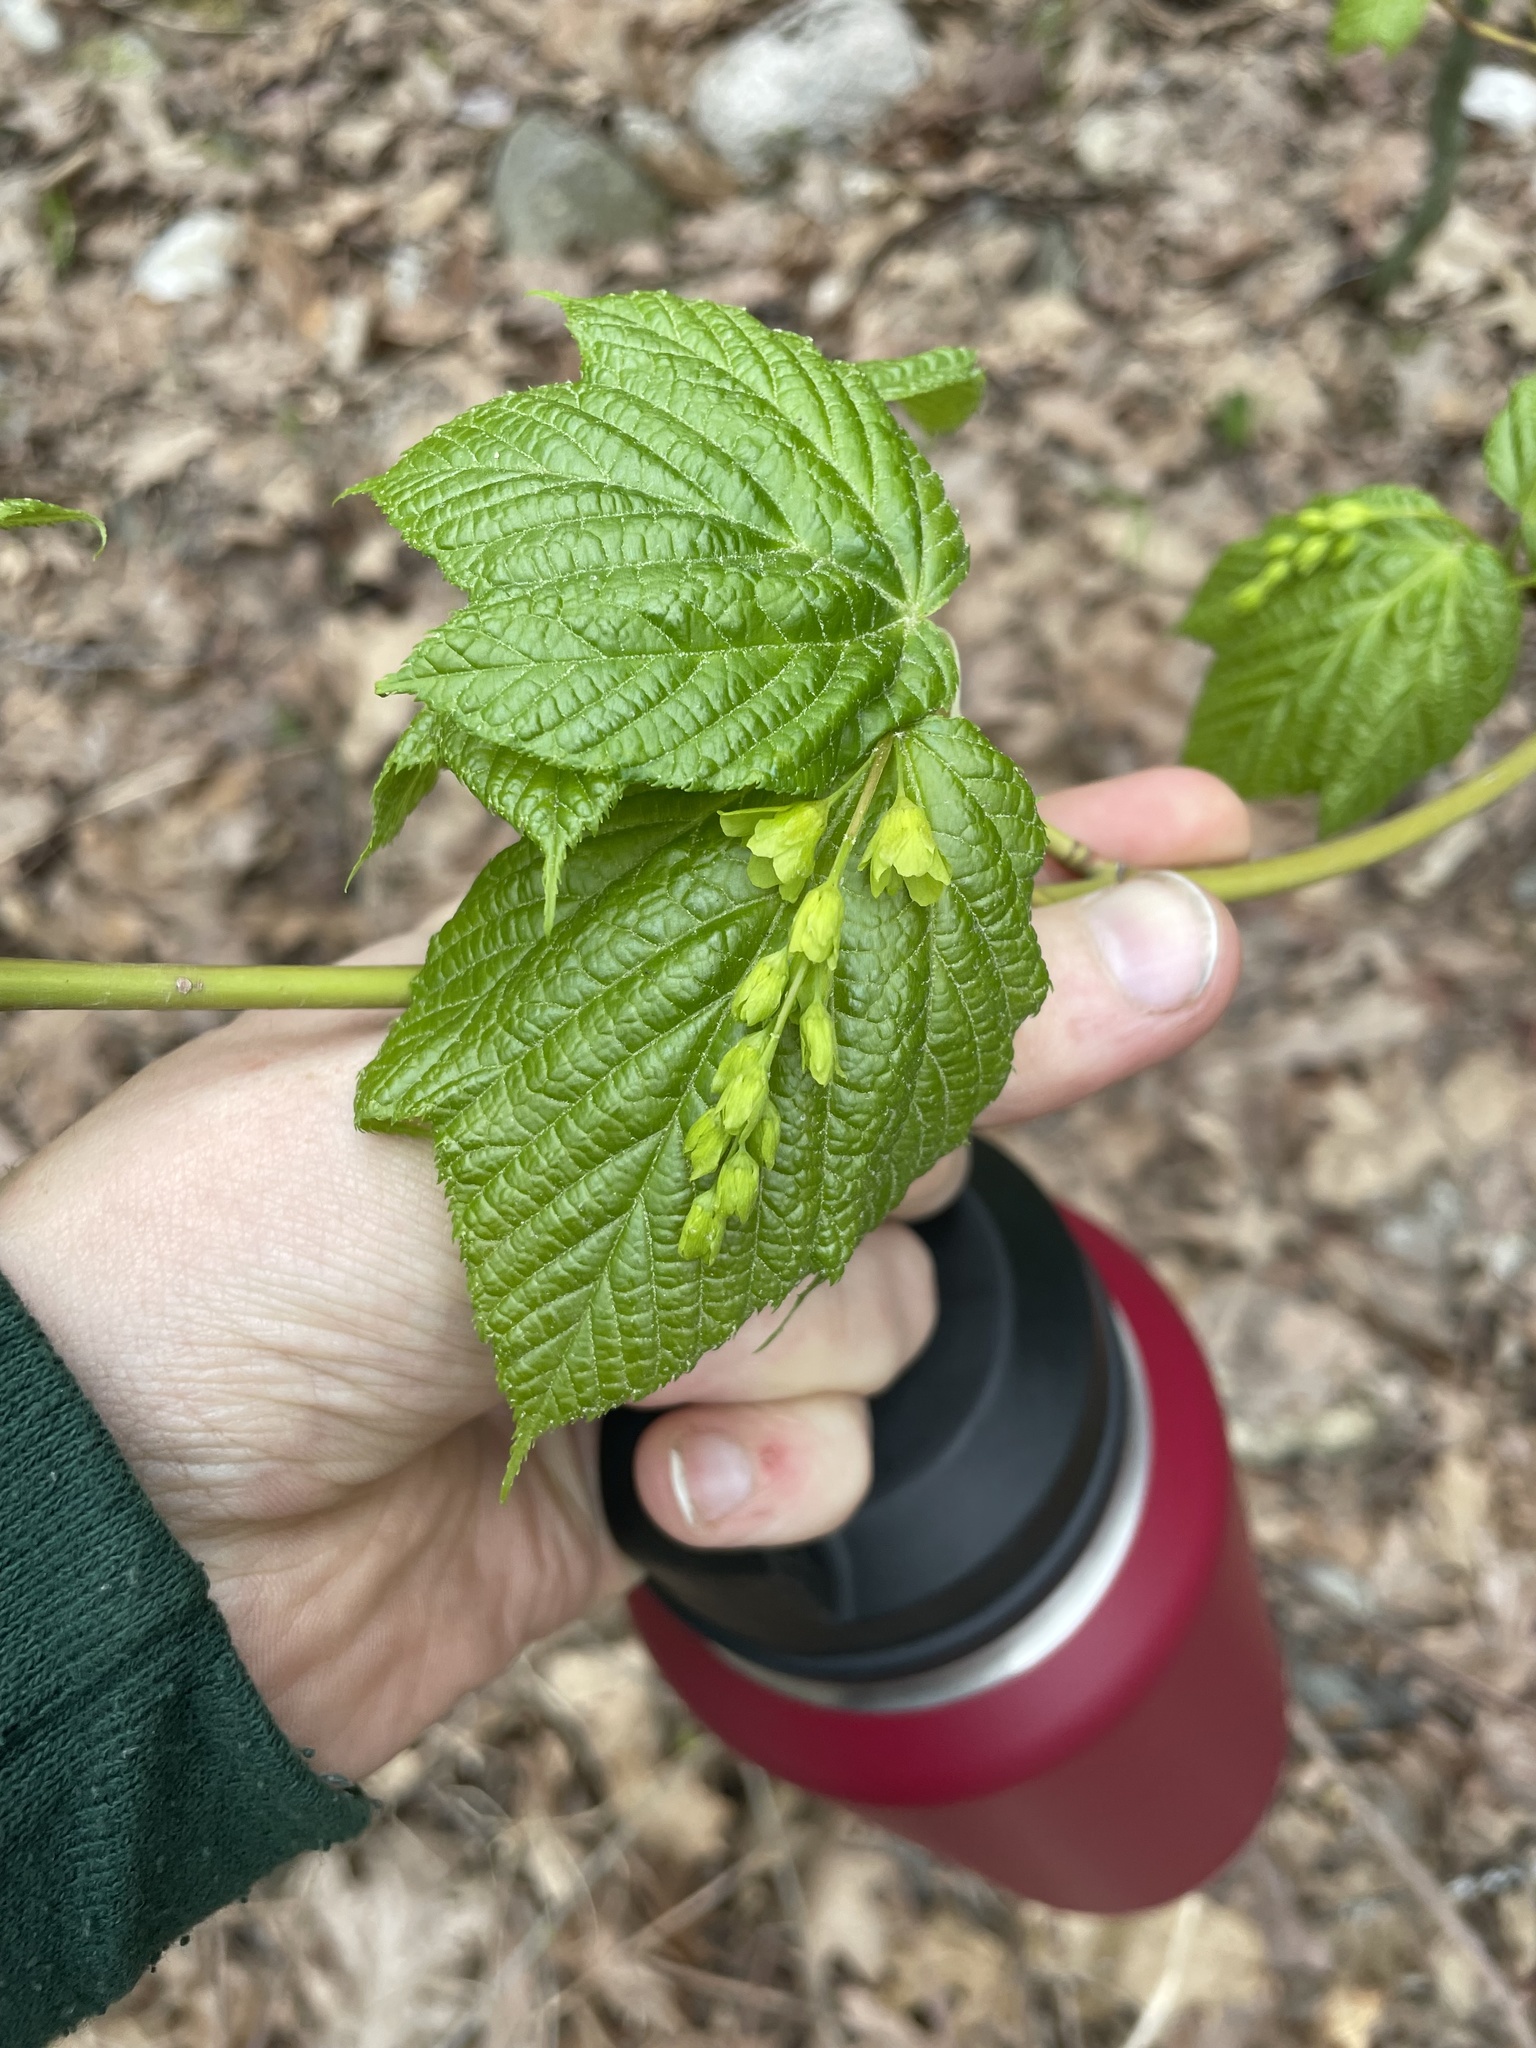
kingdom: Plantae
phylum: Tracheophyta
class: Magnoliopsida
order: Sapindales
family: Sapindaceae
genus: Acer
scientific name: Acer pensylvanicum
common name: Moosewood
